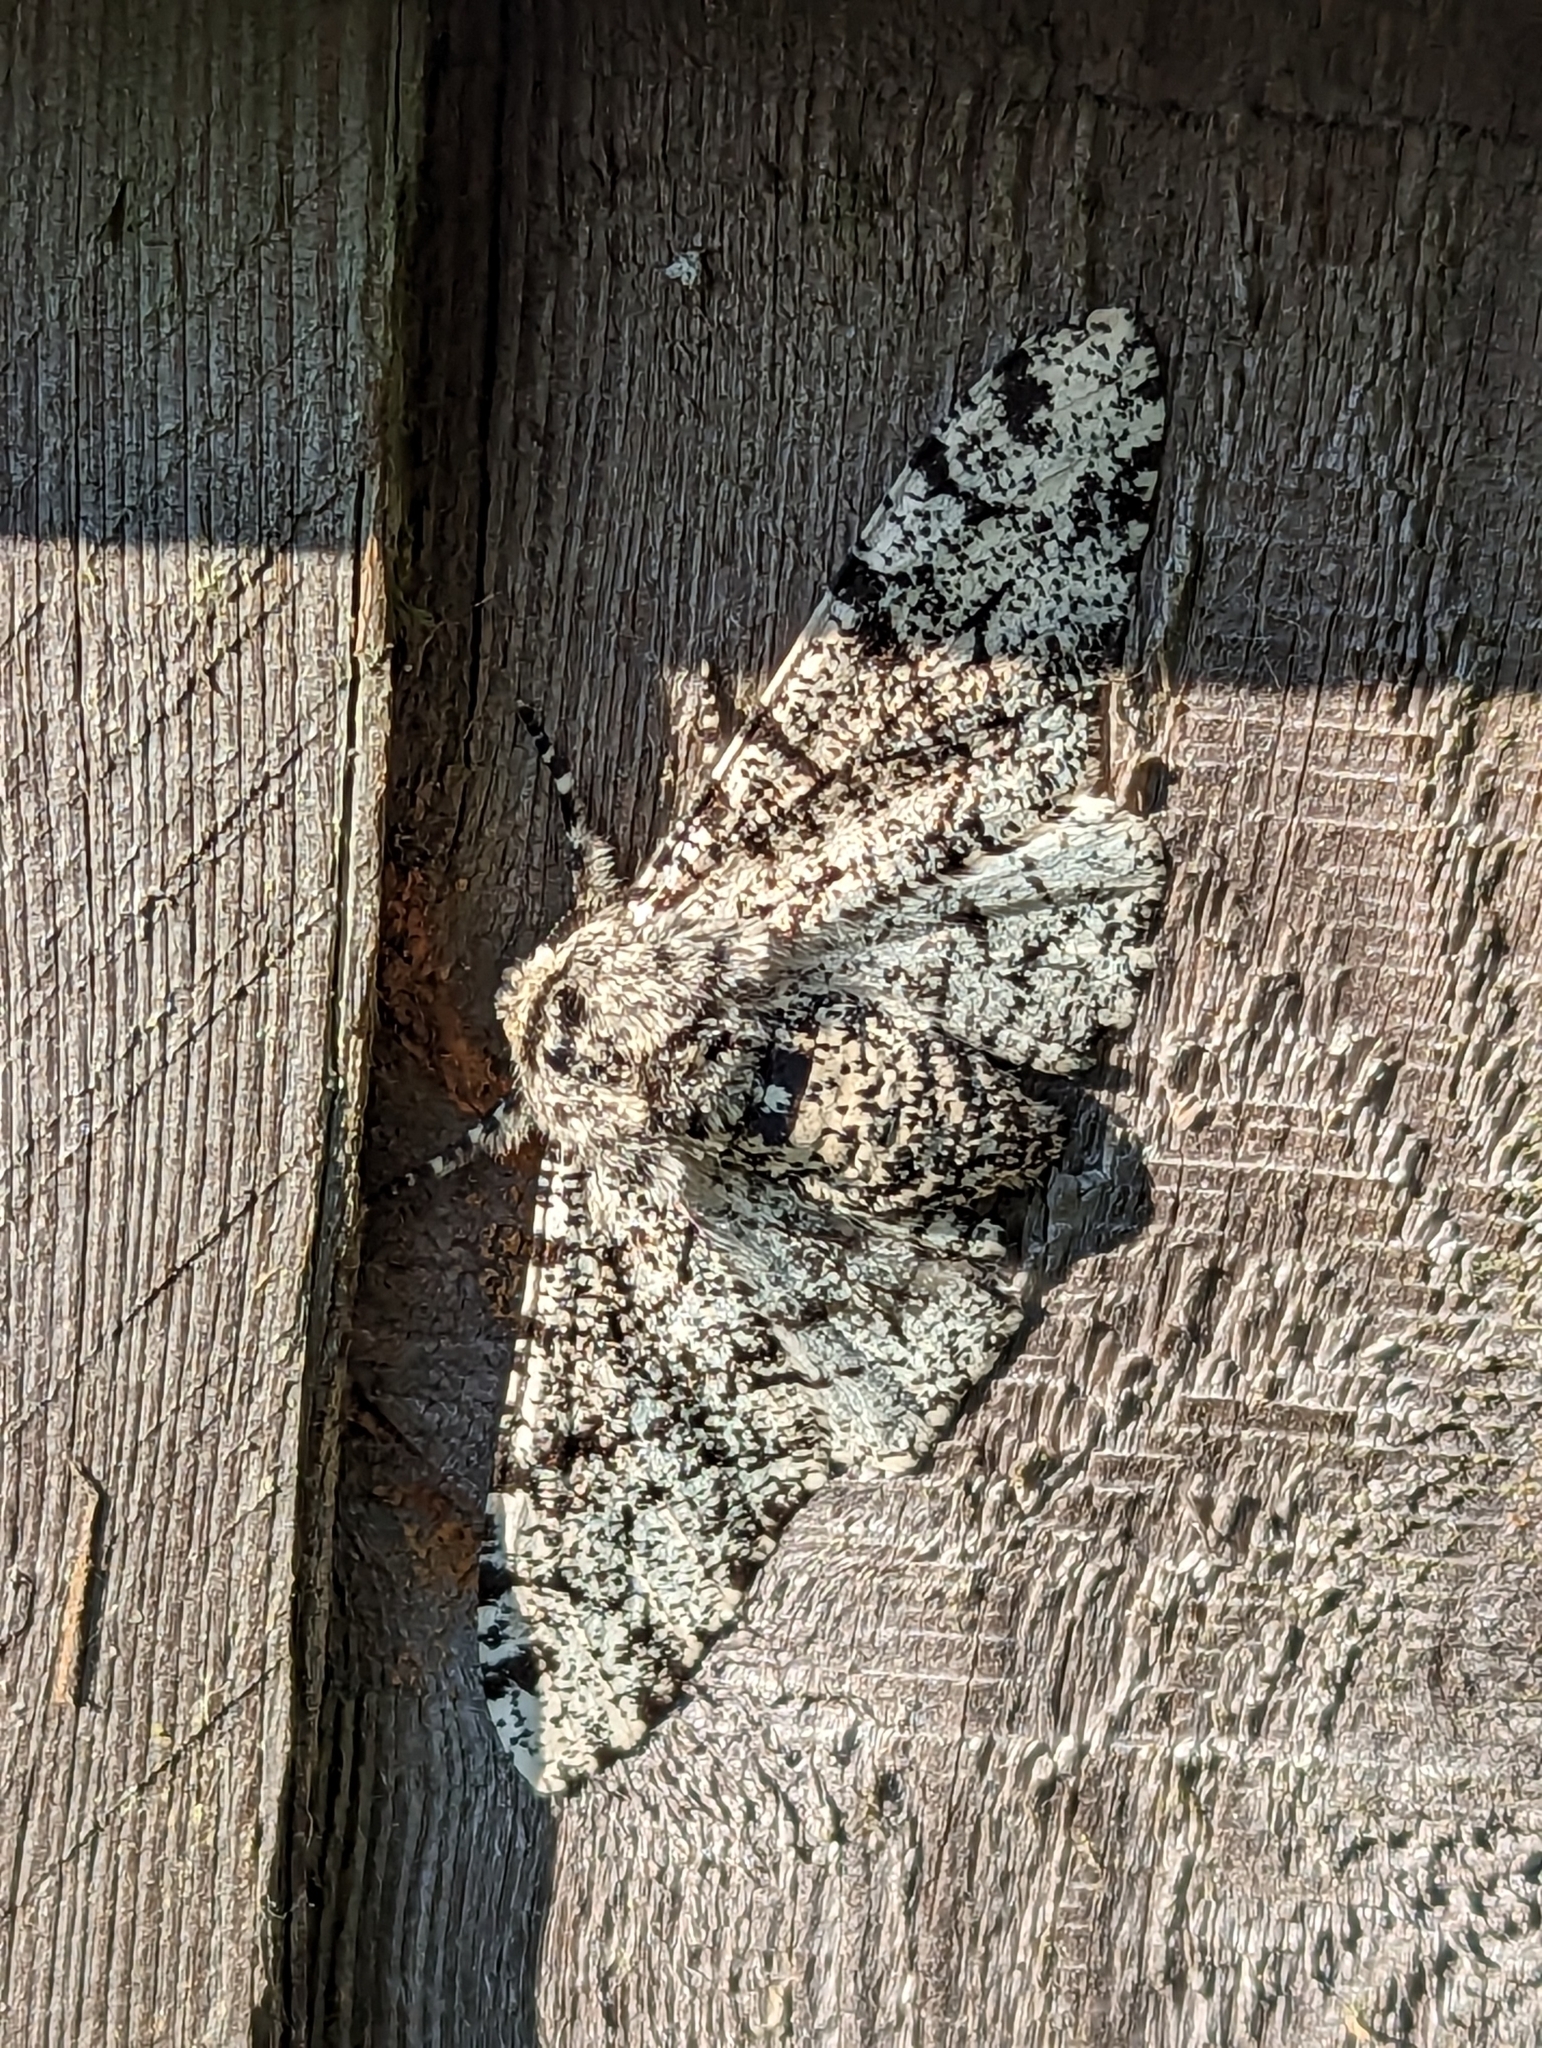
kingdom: Animalia
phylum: Arthropoda
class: Insecta
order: Lepidoptera
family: Geometridae
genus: Biston
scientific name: Biston betularia
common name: Peppered moth
